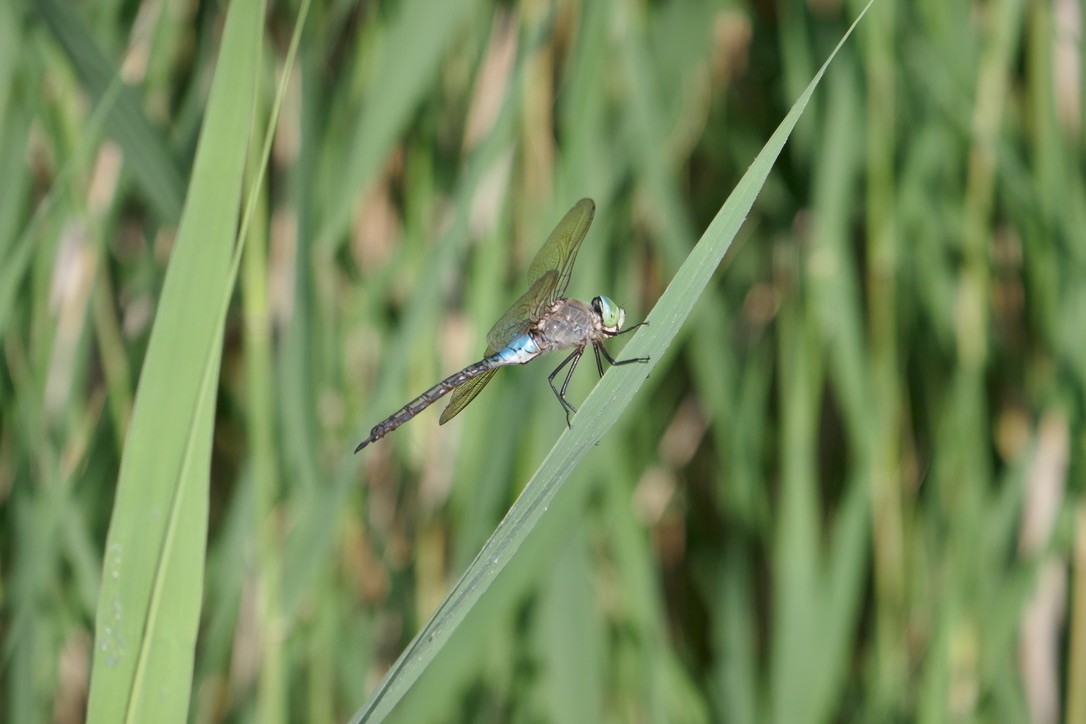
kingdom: Animalia
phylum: Arthropoda
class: Insecta
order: Odonata
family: Aeshnidae
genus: Anax
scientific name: Anax parthenope
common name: Lesser emperor
